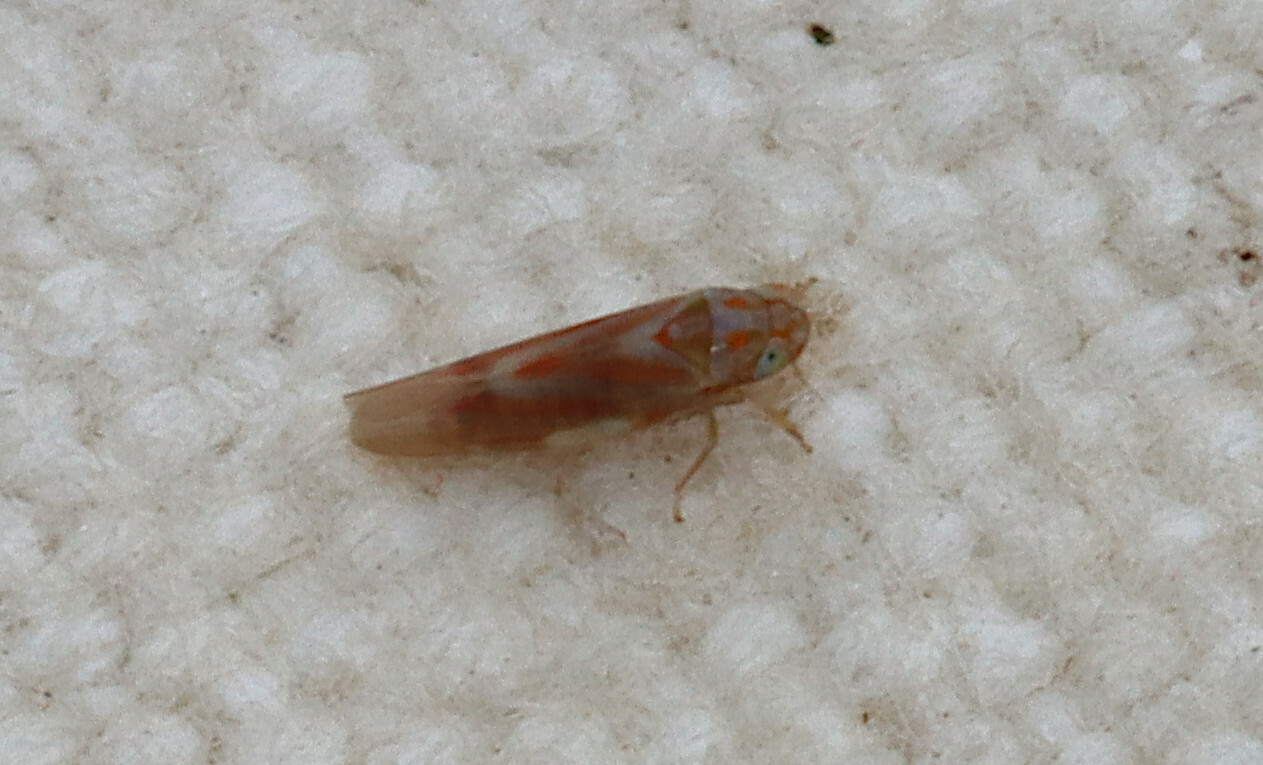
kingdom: Animalia
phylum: Arthropoda
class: Insecta
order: Hemiptera
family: Cicadellidae
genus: Erythridula
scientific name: Erythridula electa
